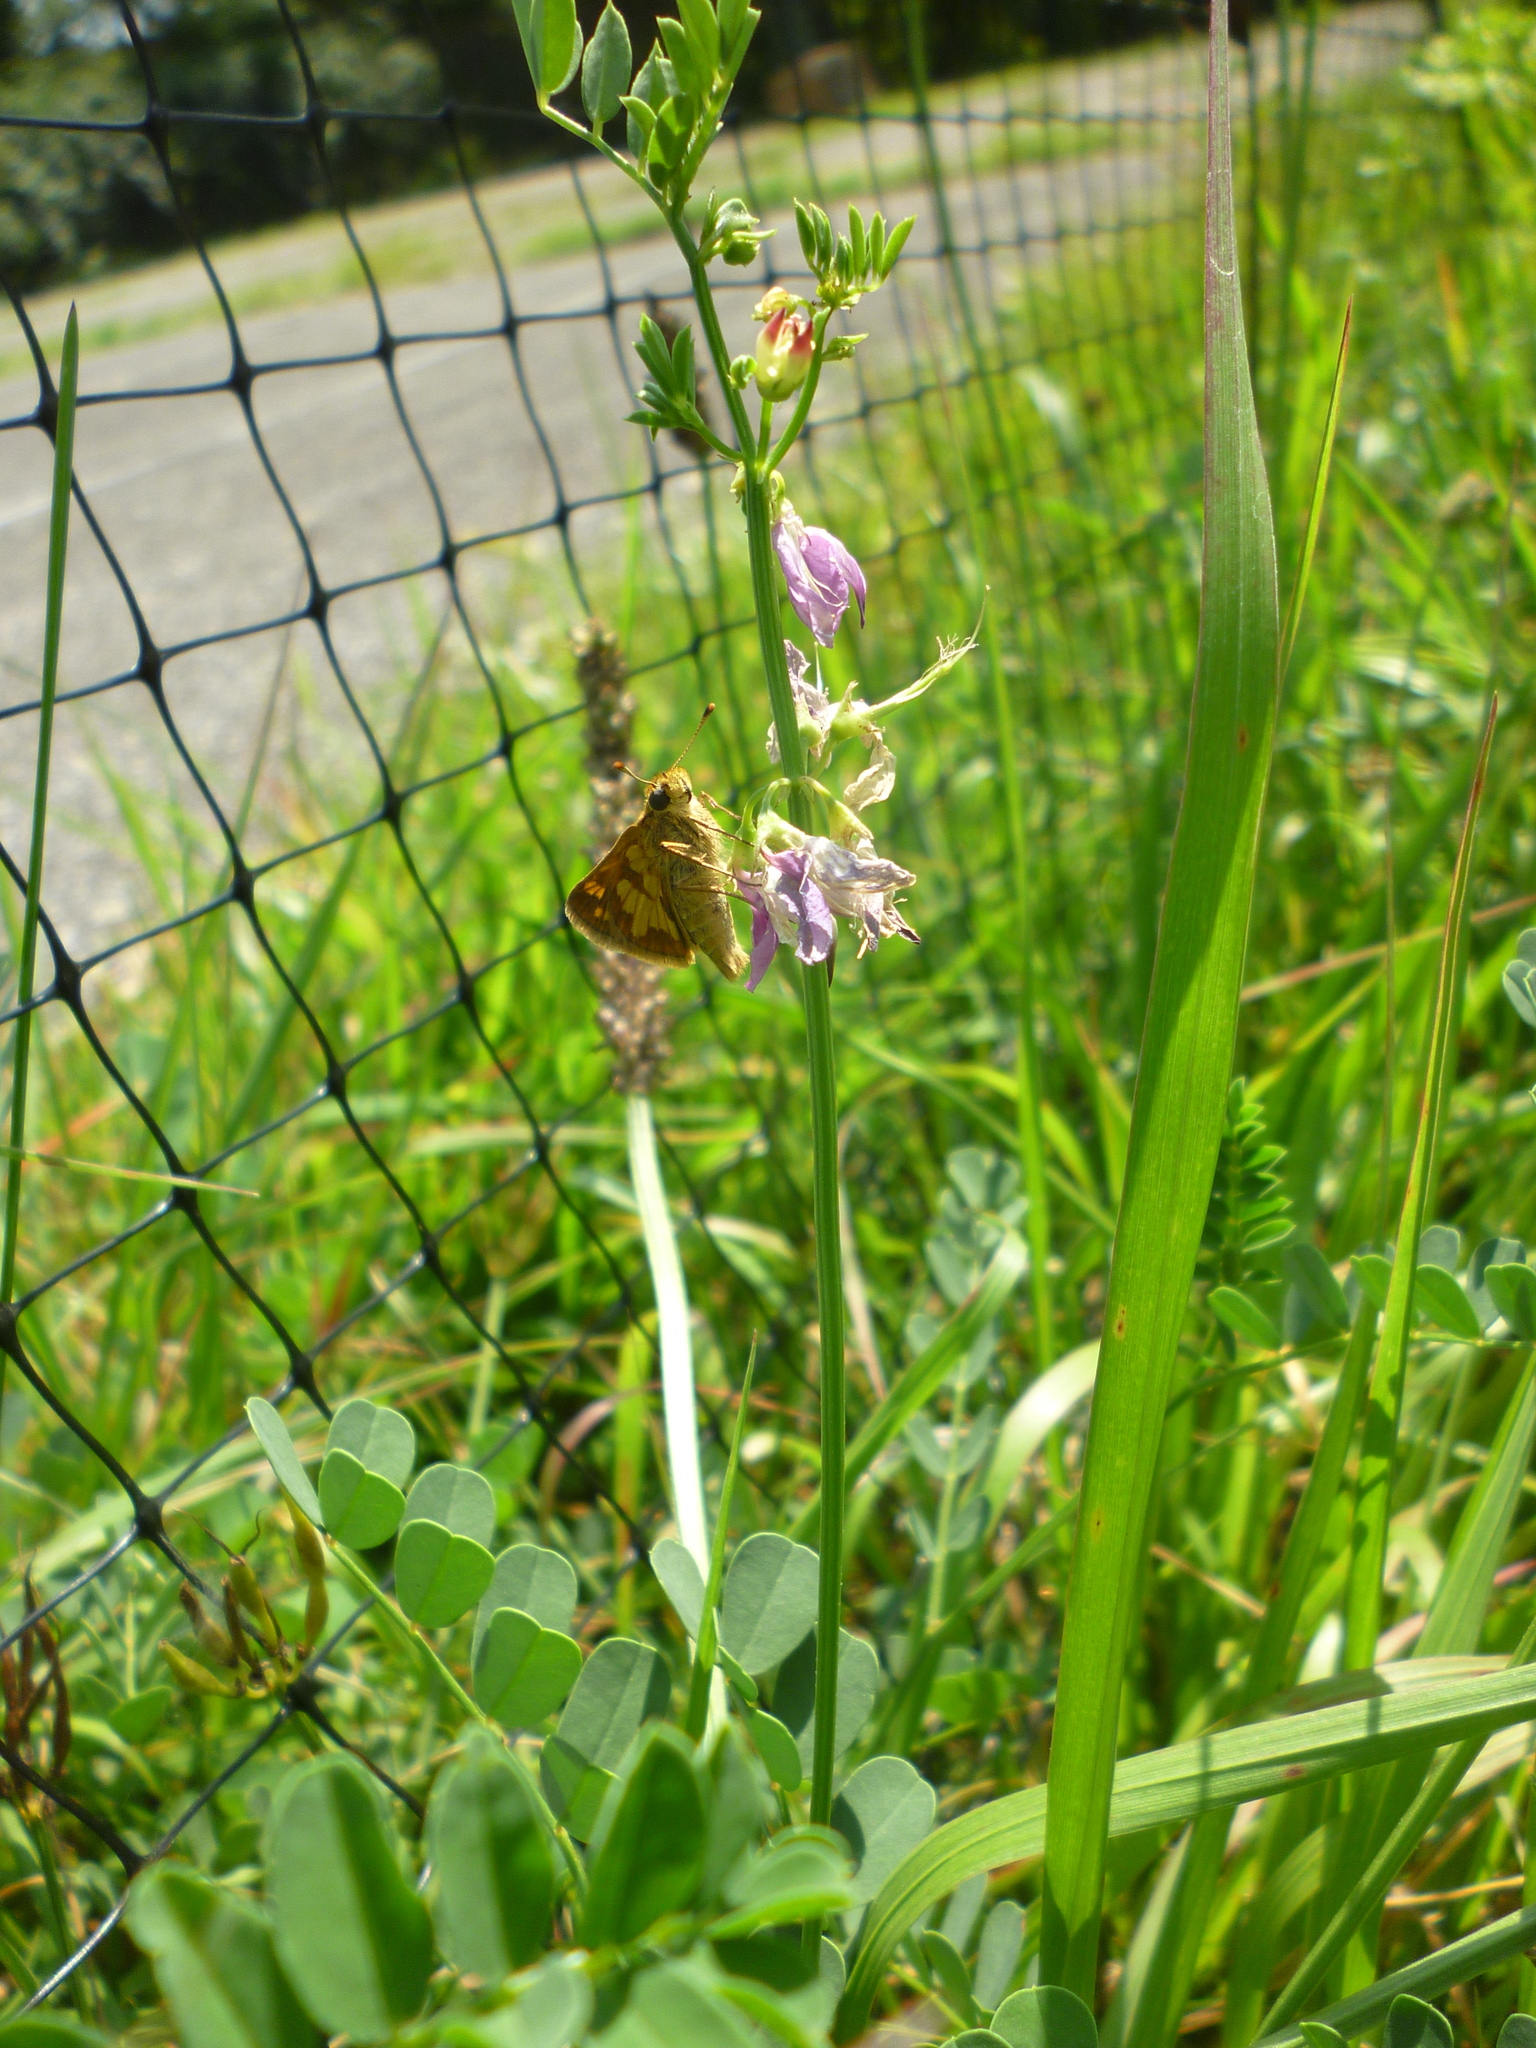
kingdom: Plantae
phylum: Tracheophyta
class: Magnoliopsida
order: Fabales
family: Fabaceae
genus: Coronilla
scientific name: Coronilla varia
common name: Crownvetch
